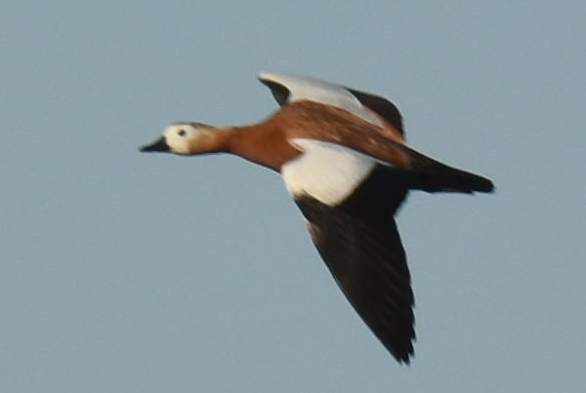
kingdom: Animalia
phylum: Chordata
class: Aves
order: Anseriformes
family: Anatidae
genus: Tadorna
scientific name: Tadorna ferruginea
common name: Ruddy shelduck
